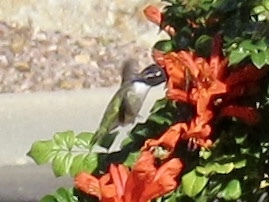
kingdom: Animalia
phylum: Chordata
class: Aves
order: Apodiformes
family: Trochilidae
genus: Calypte
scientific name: Calypte costae
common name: Costa's hummingbird
